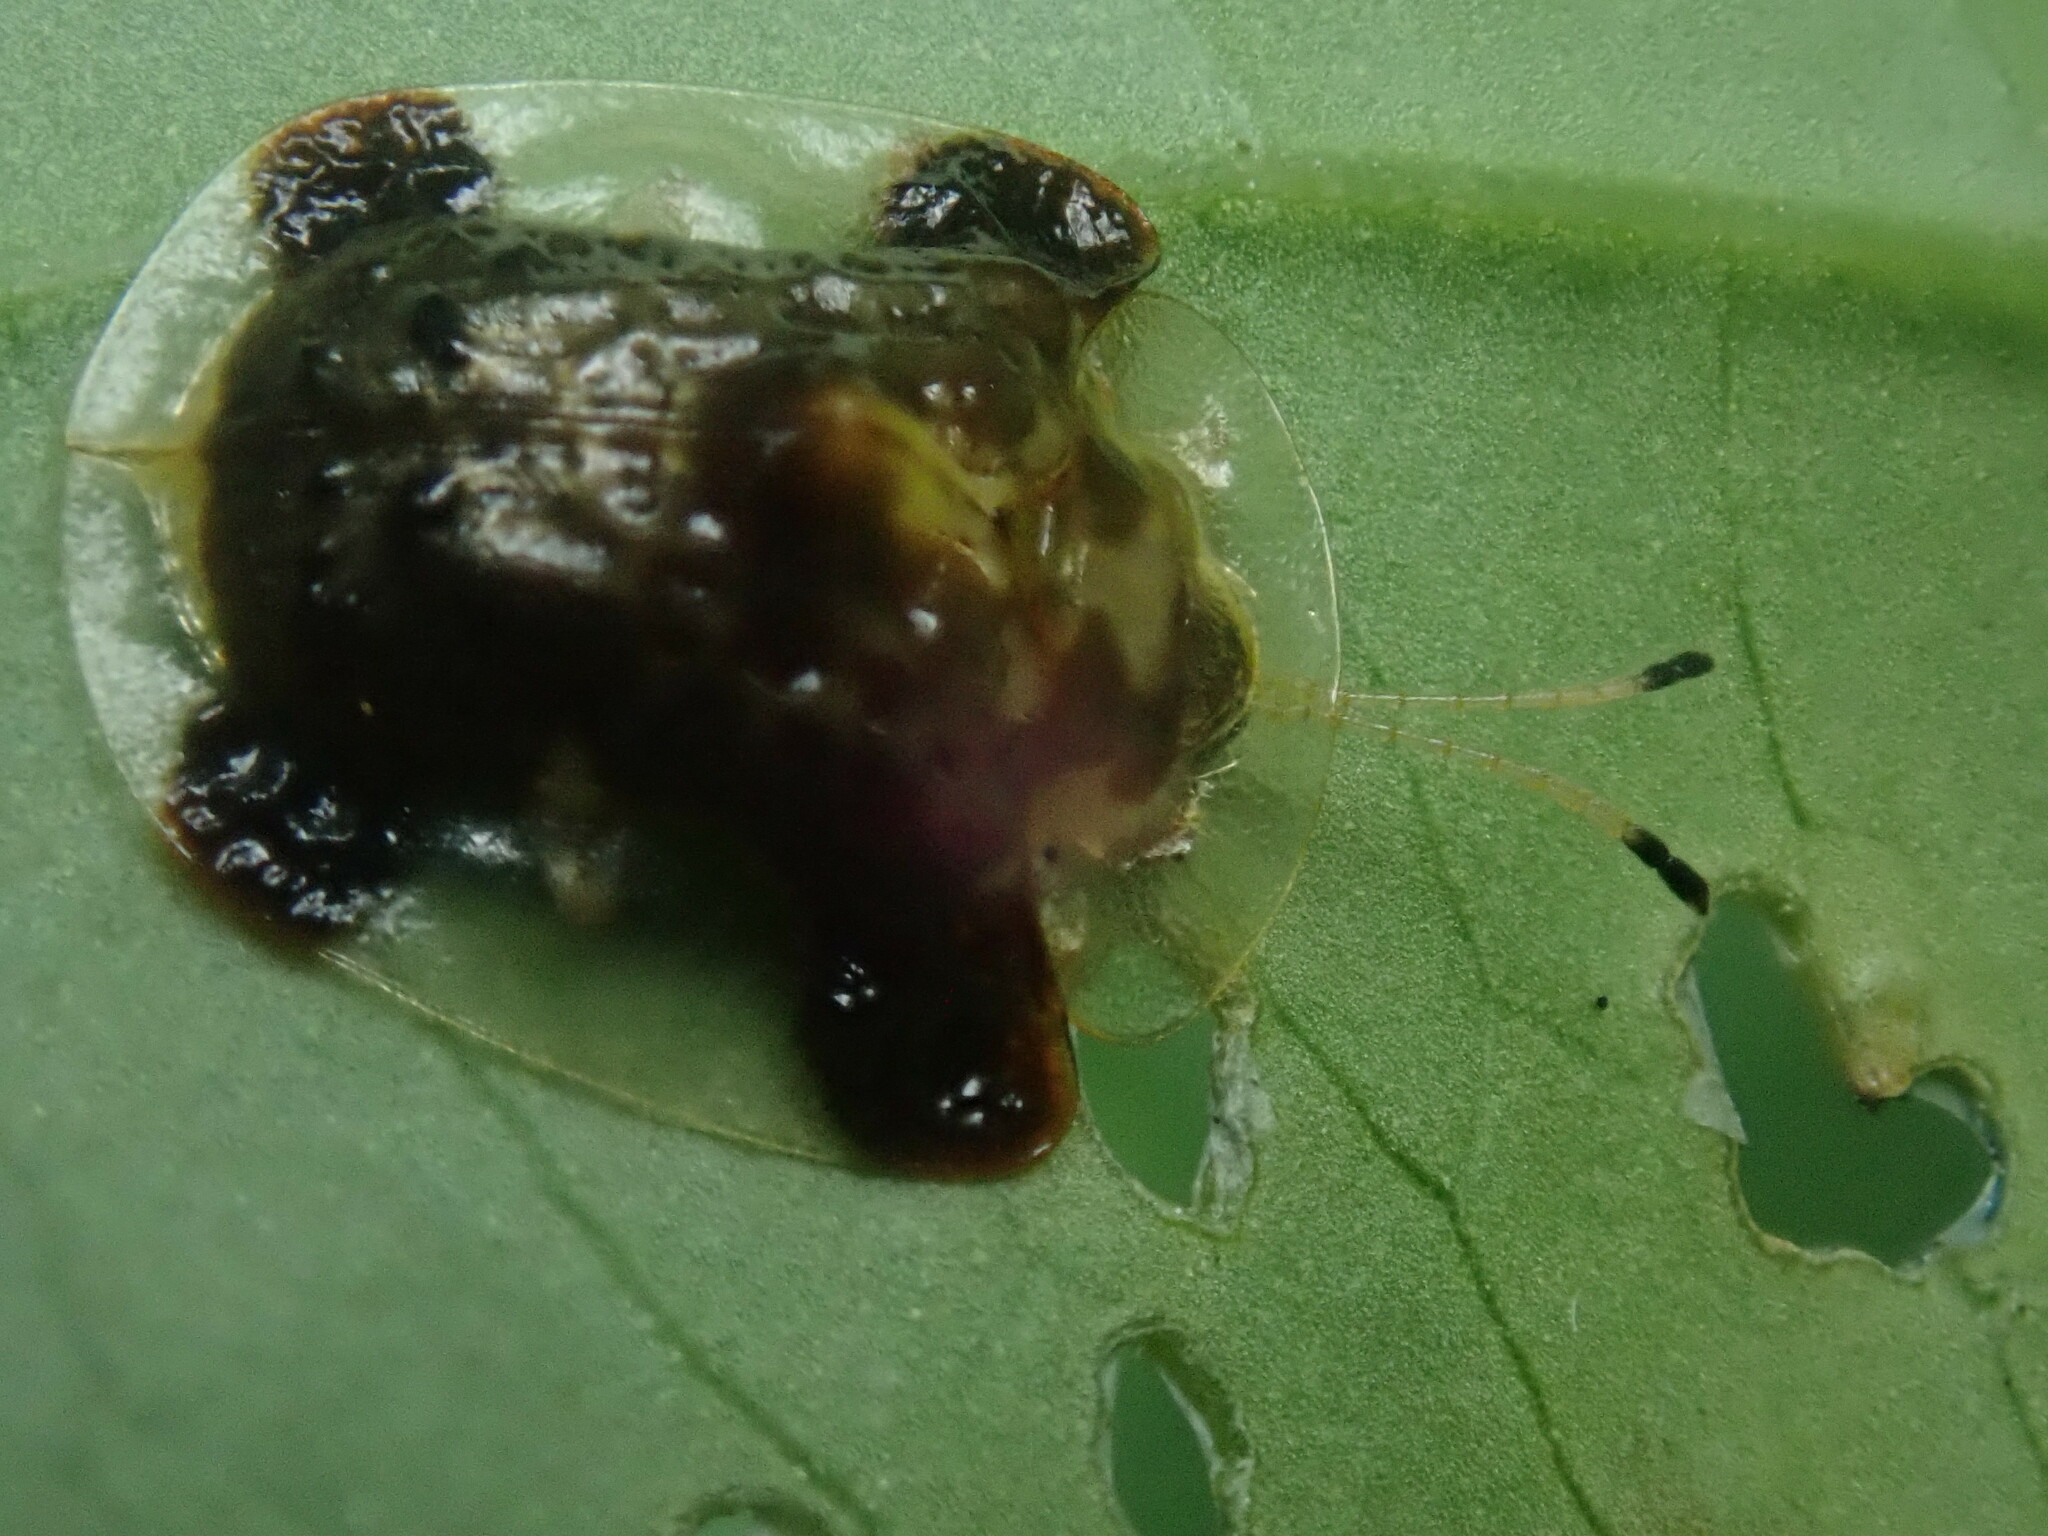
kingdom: Animalia
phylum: Arthropoda
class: Insecta
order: Coleoptera
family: Chrysomelidae
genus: Helocassis
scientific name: Helocassis testudinaria
